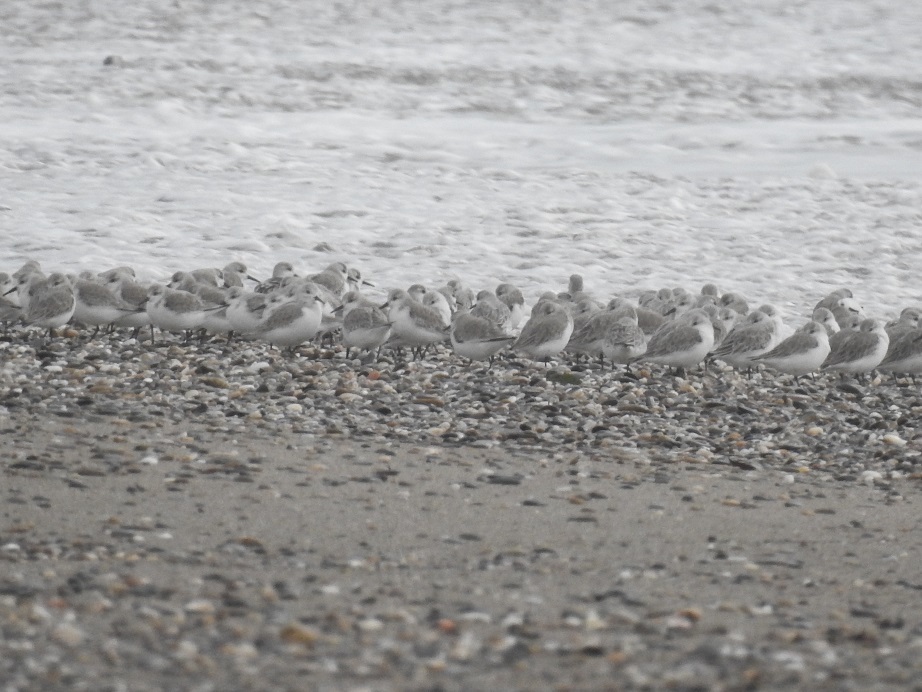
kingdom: Animalia
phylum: Chordata
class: Aves
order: Charadriiformes
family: Scolopacidae
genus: Calidris
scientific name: Calidris alba
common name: Sanderling
